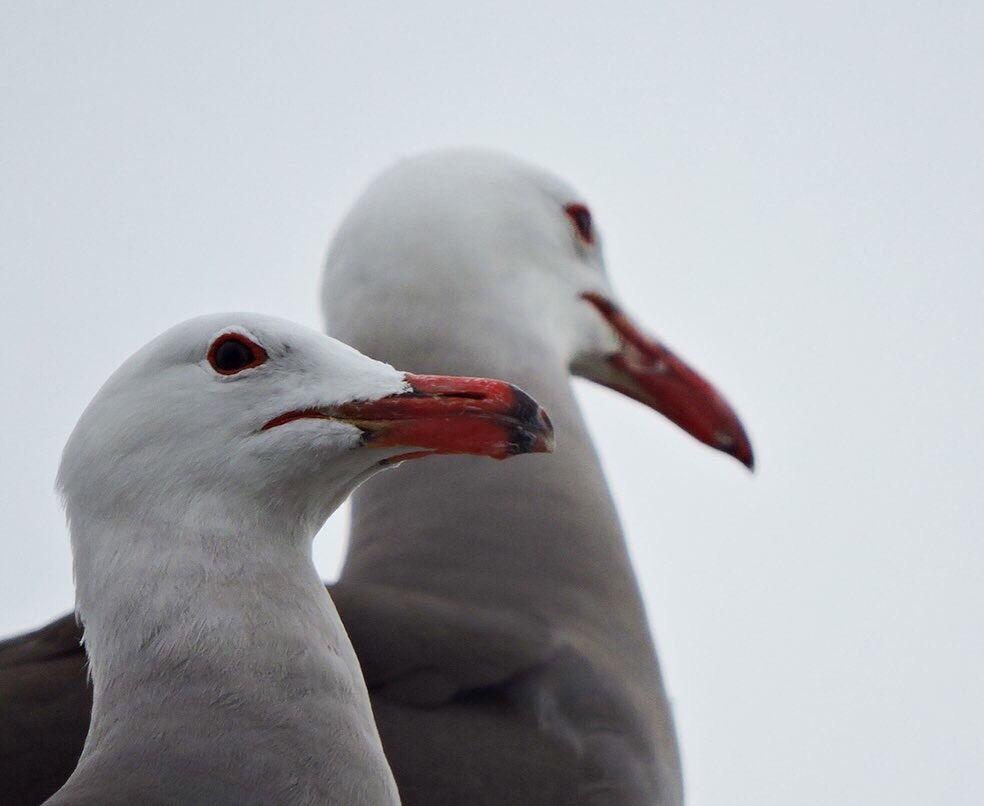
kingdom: Animalia
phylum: Chordata
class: Aves
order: Charadriiformes
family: Laridae
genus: Larus
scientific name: Larus heermanni
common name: Heermann's gull
